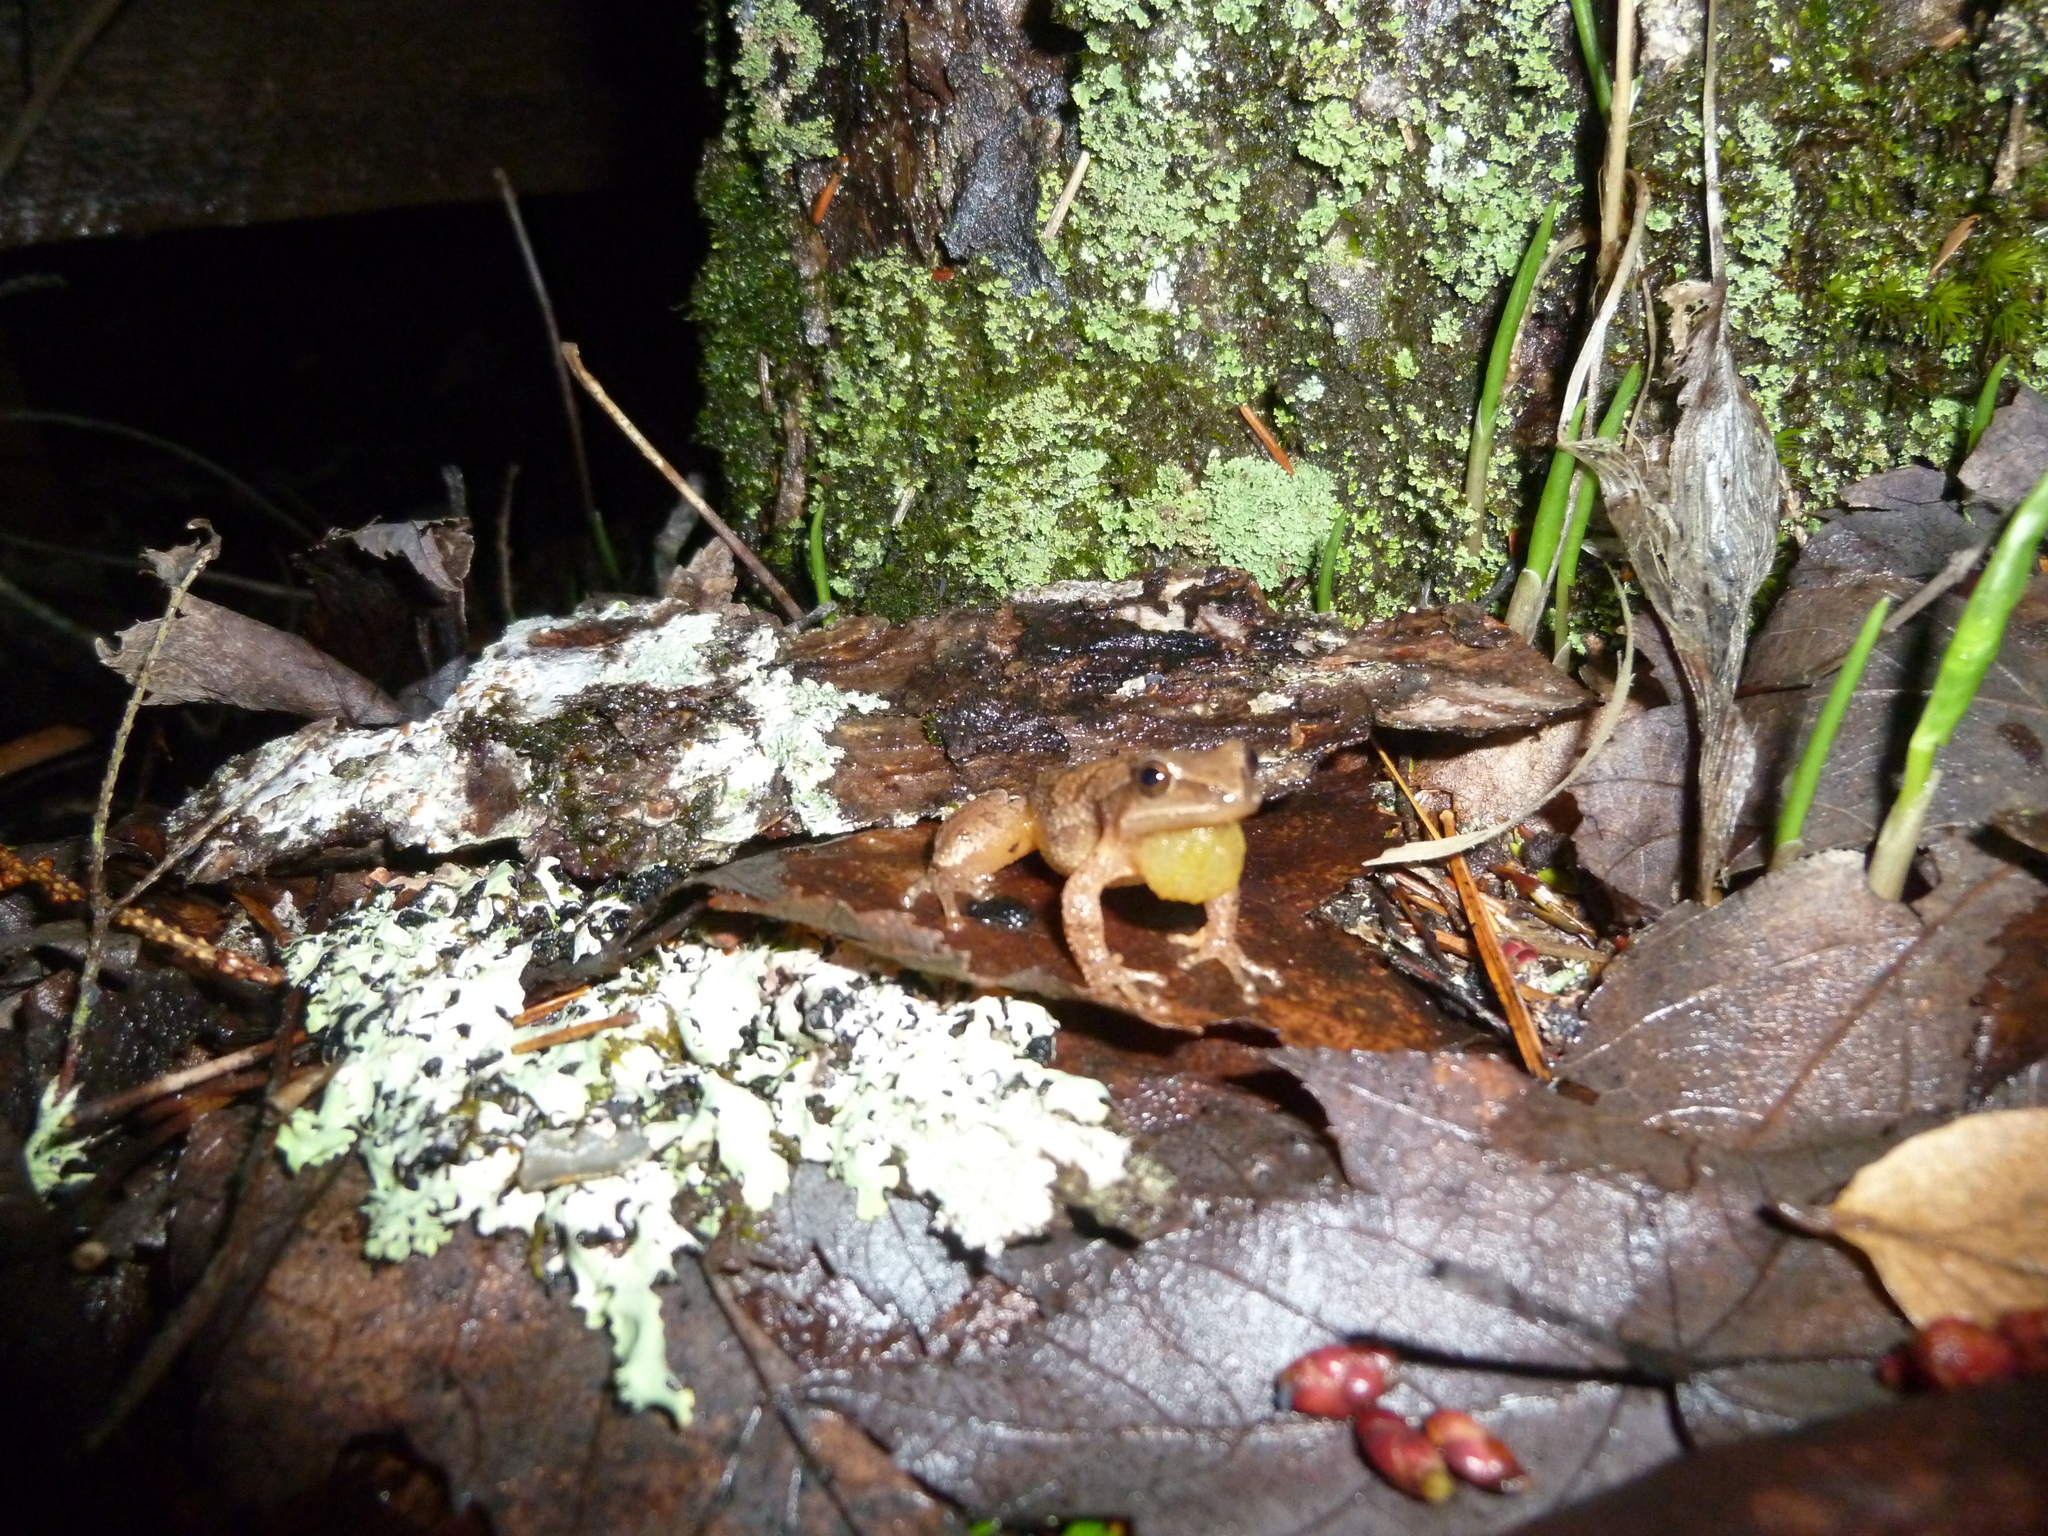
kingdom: Animalia
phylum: Chordata
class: Amphibia
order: Anura
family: Hylidae
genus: Pseudacris
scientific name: Pseudacris crucifer
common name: Spring peeper
